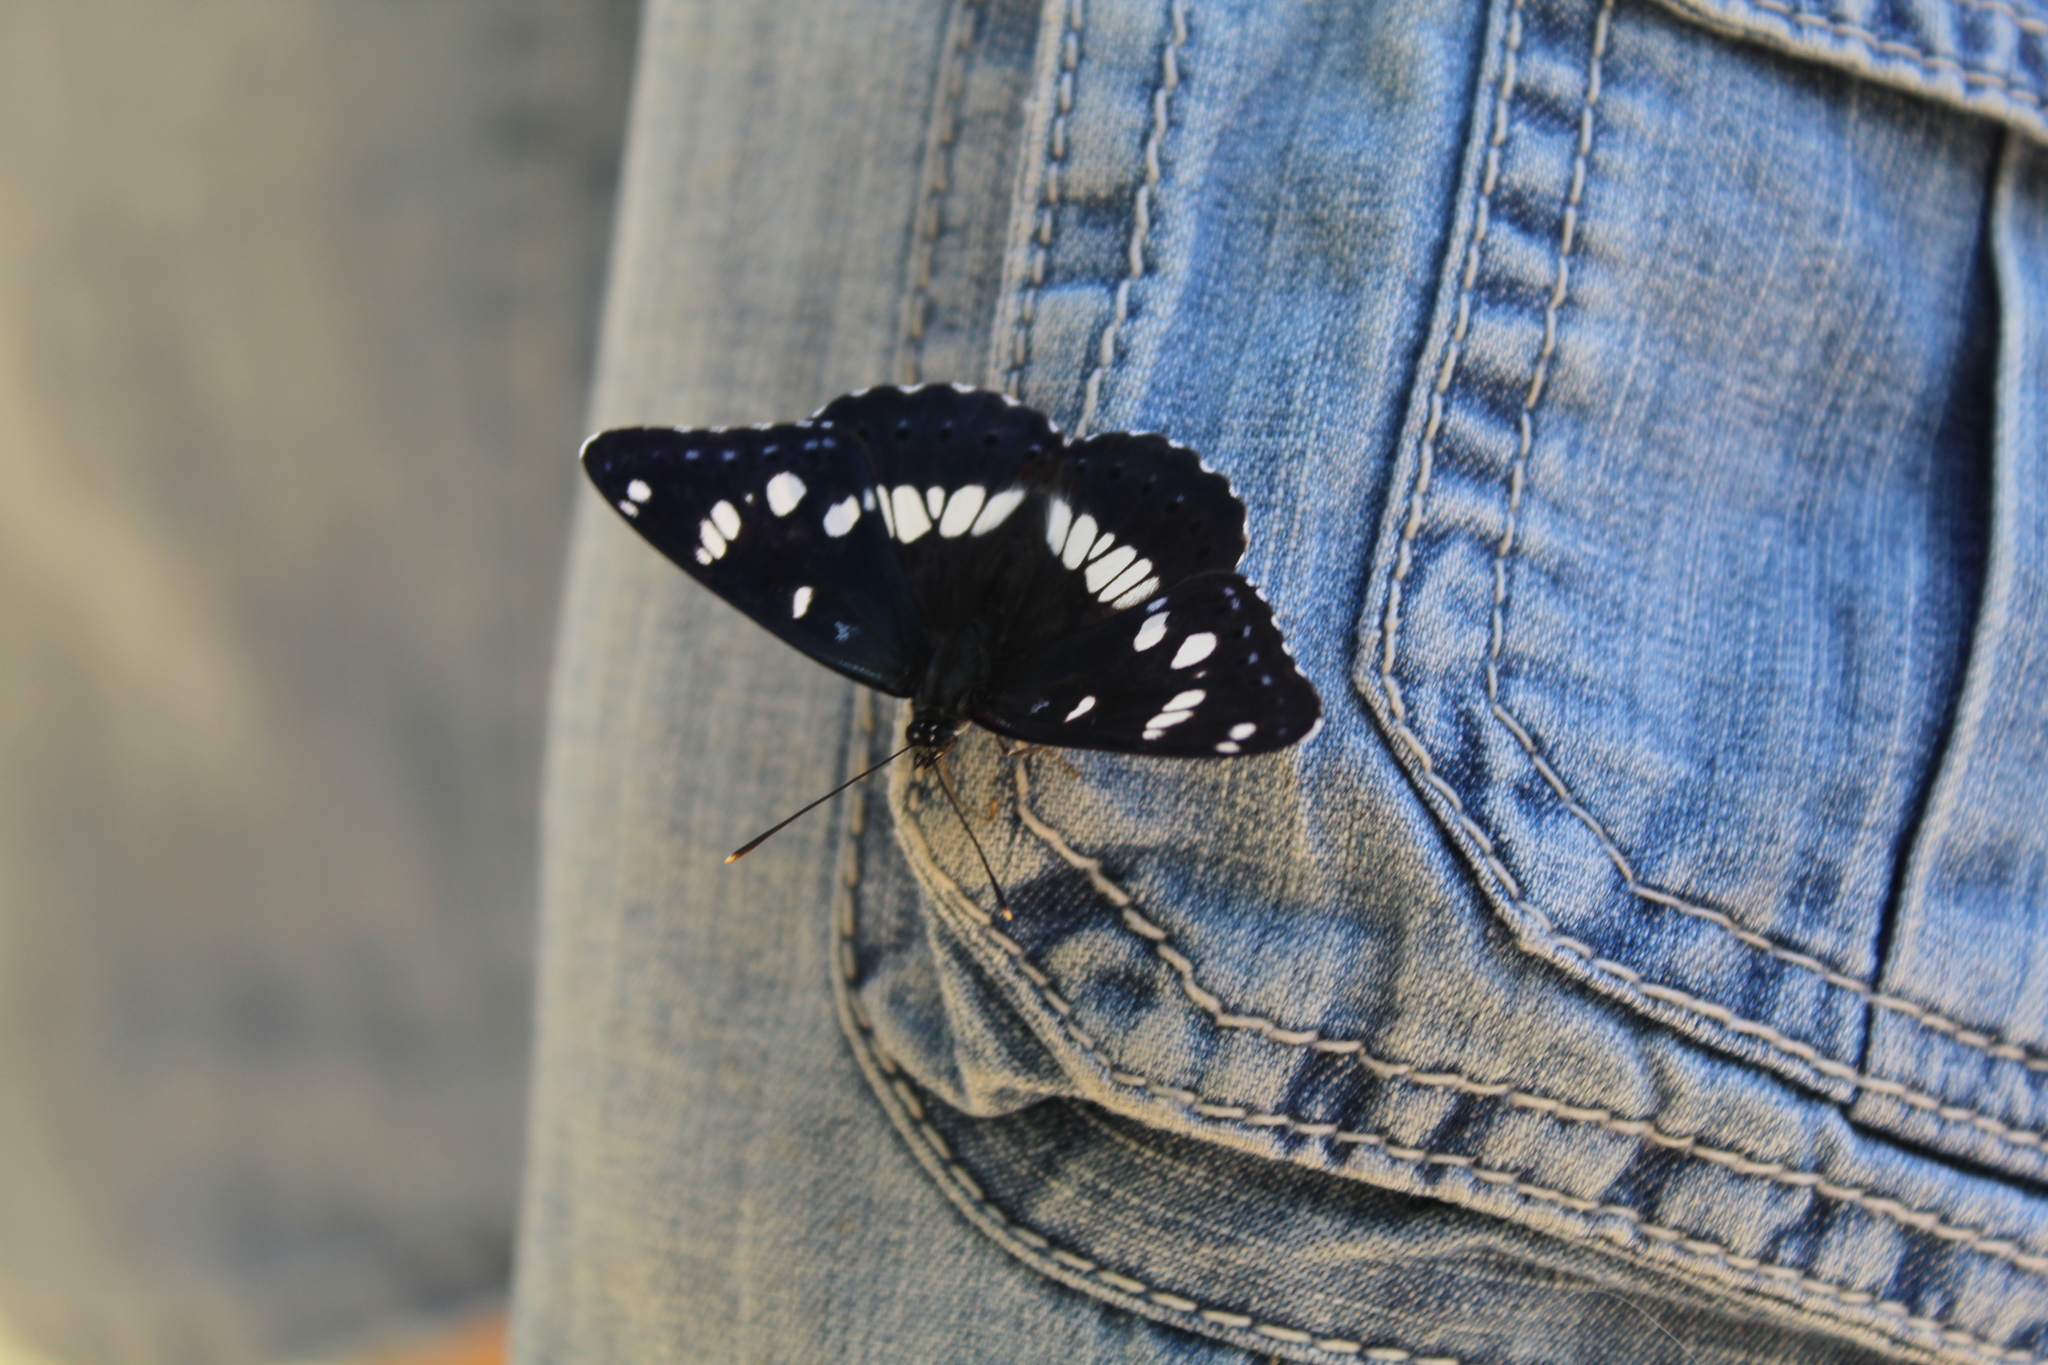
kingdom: Animalia
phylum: Arthropoda
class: Insecta
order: Lepidoptera
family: Nymphalidae
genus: Limenitis
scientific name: Limenitis reducta
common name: Southern white admiral
